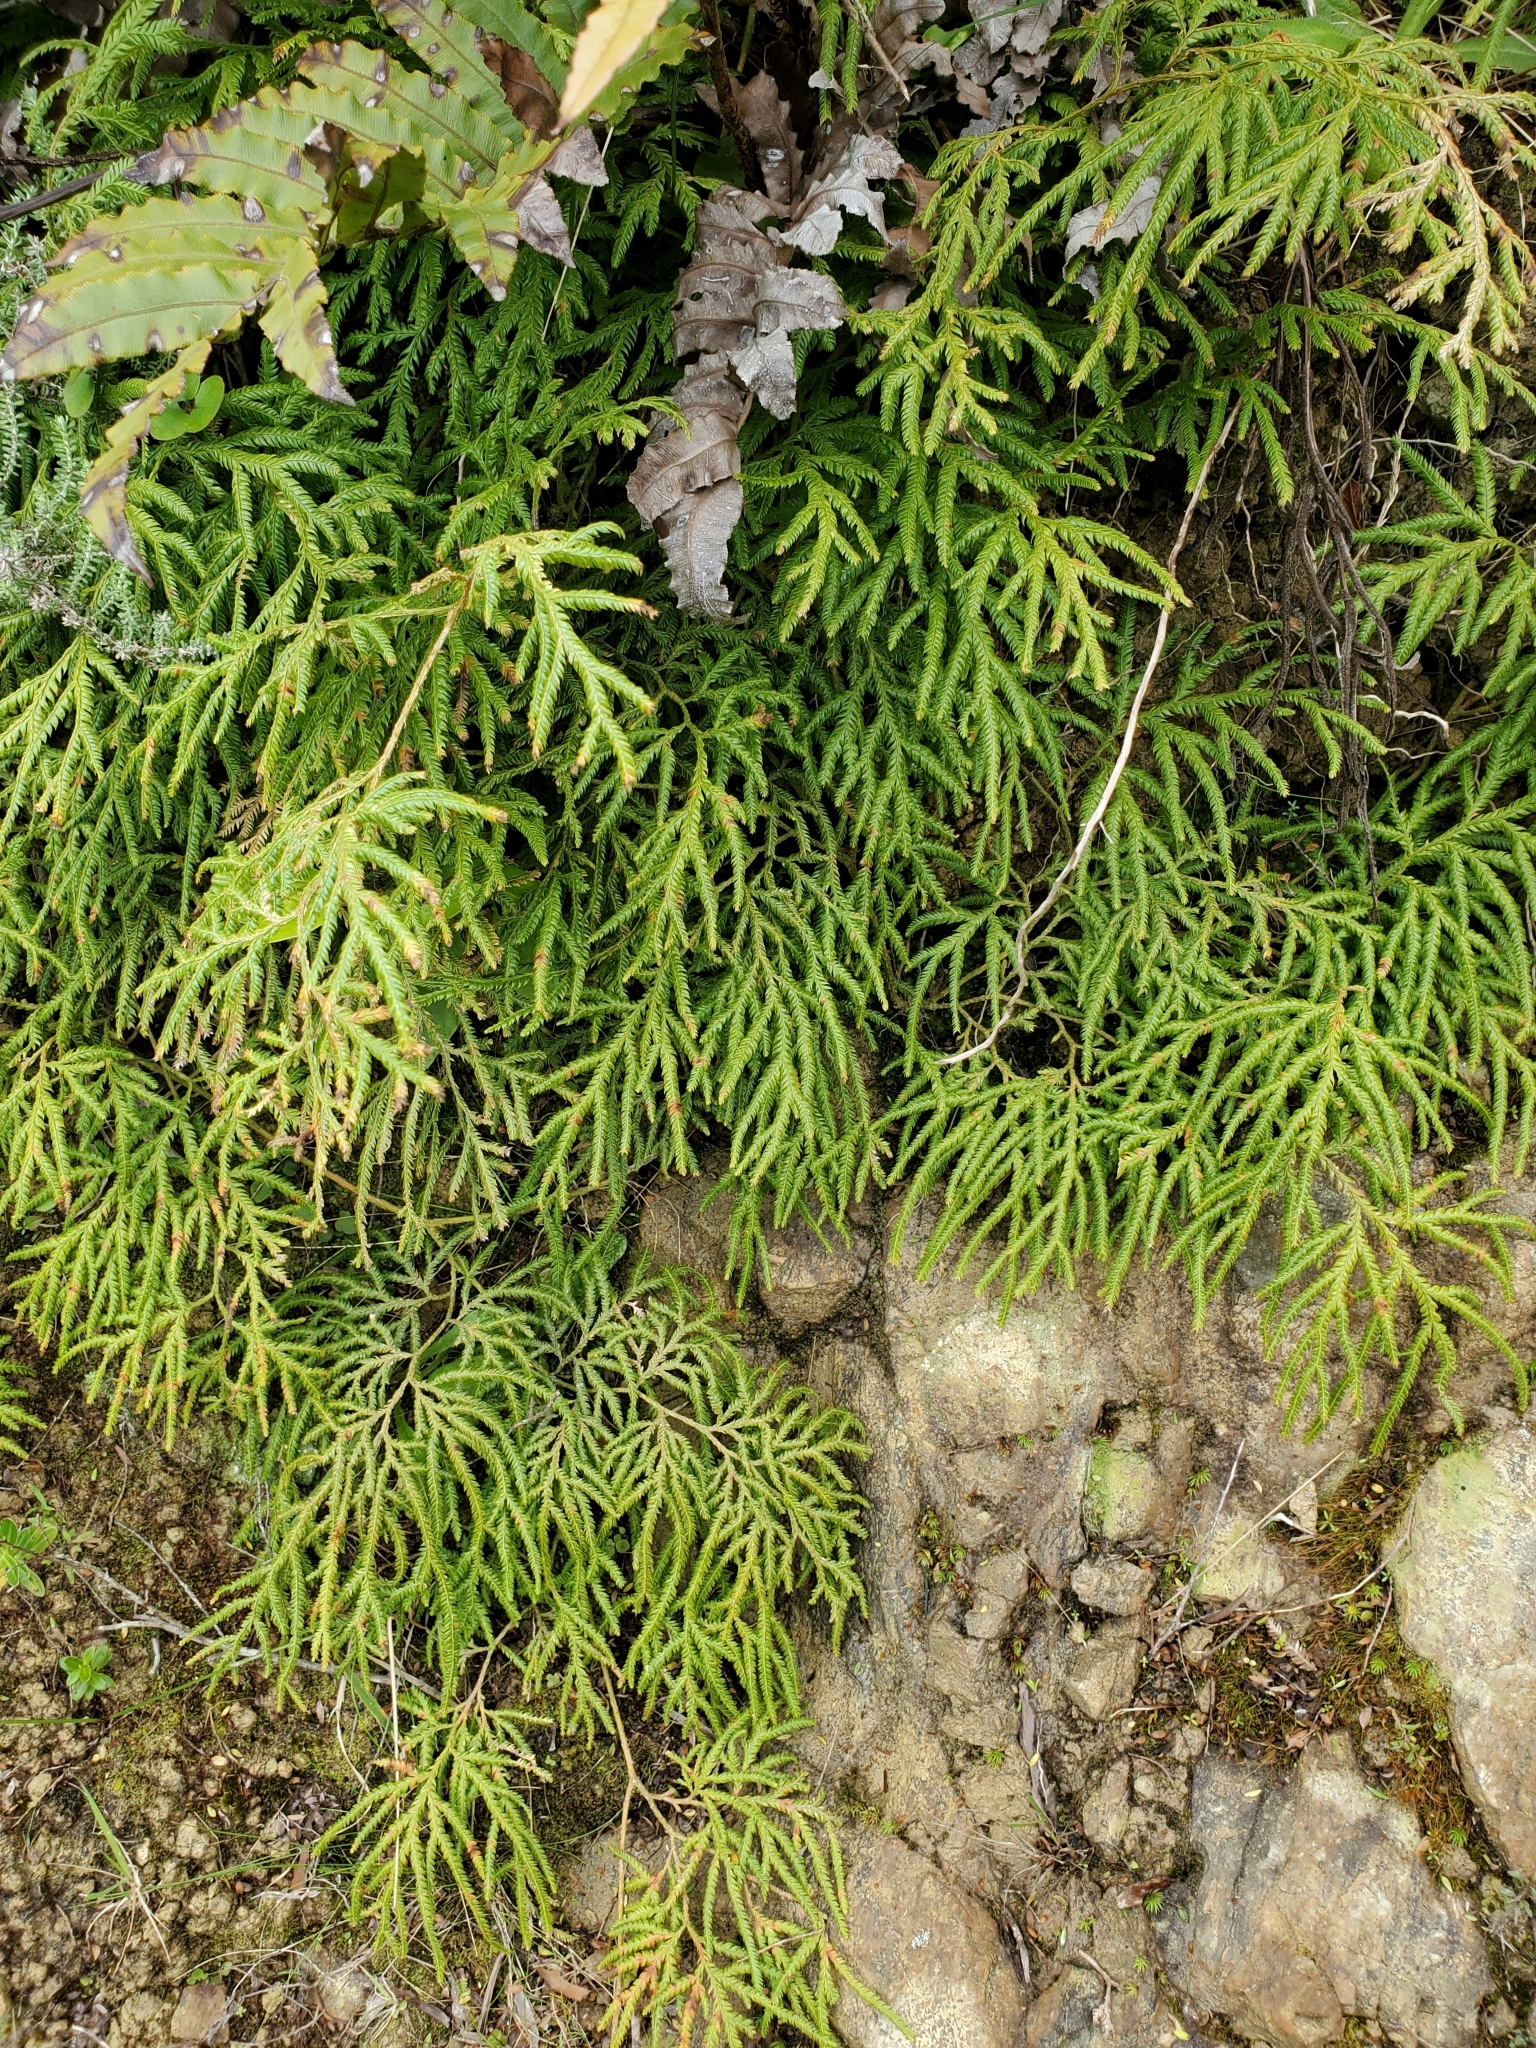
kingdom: Plantae
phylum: Tracheophyta
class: Lycopodiopsida
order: Lycopodiales
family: Lycopodiaceae
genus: Lycopodium
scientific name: Lycopodium volubile
